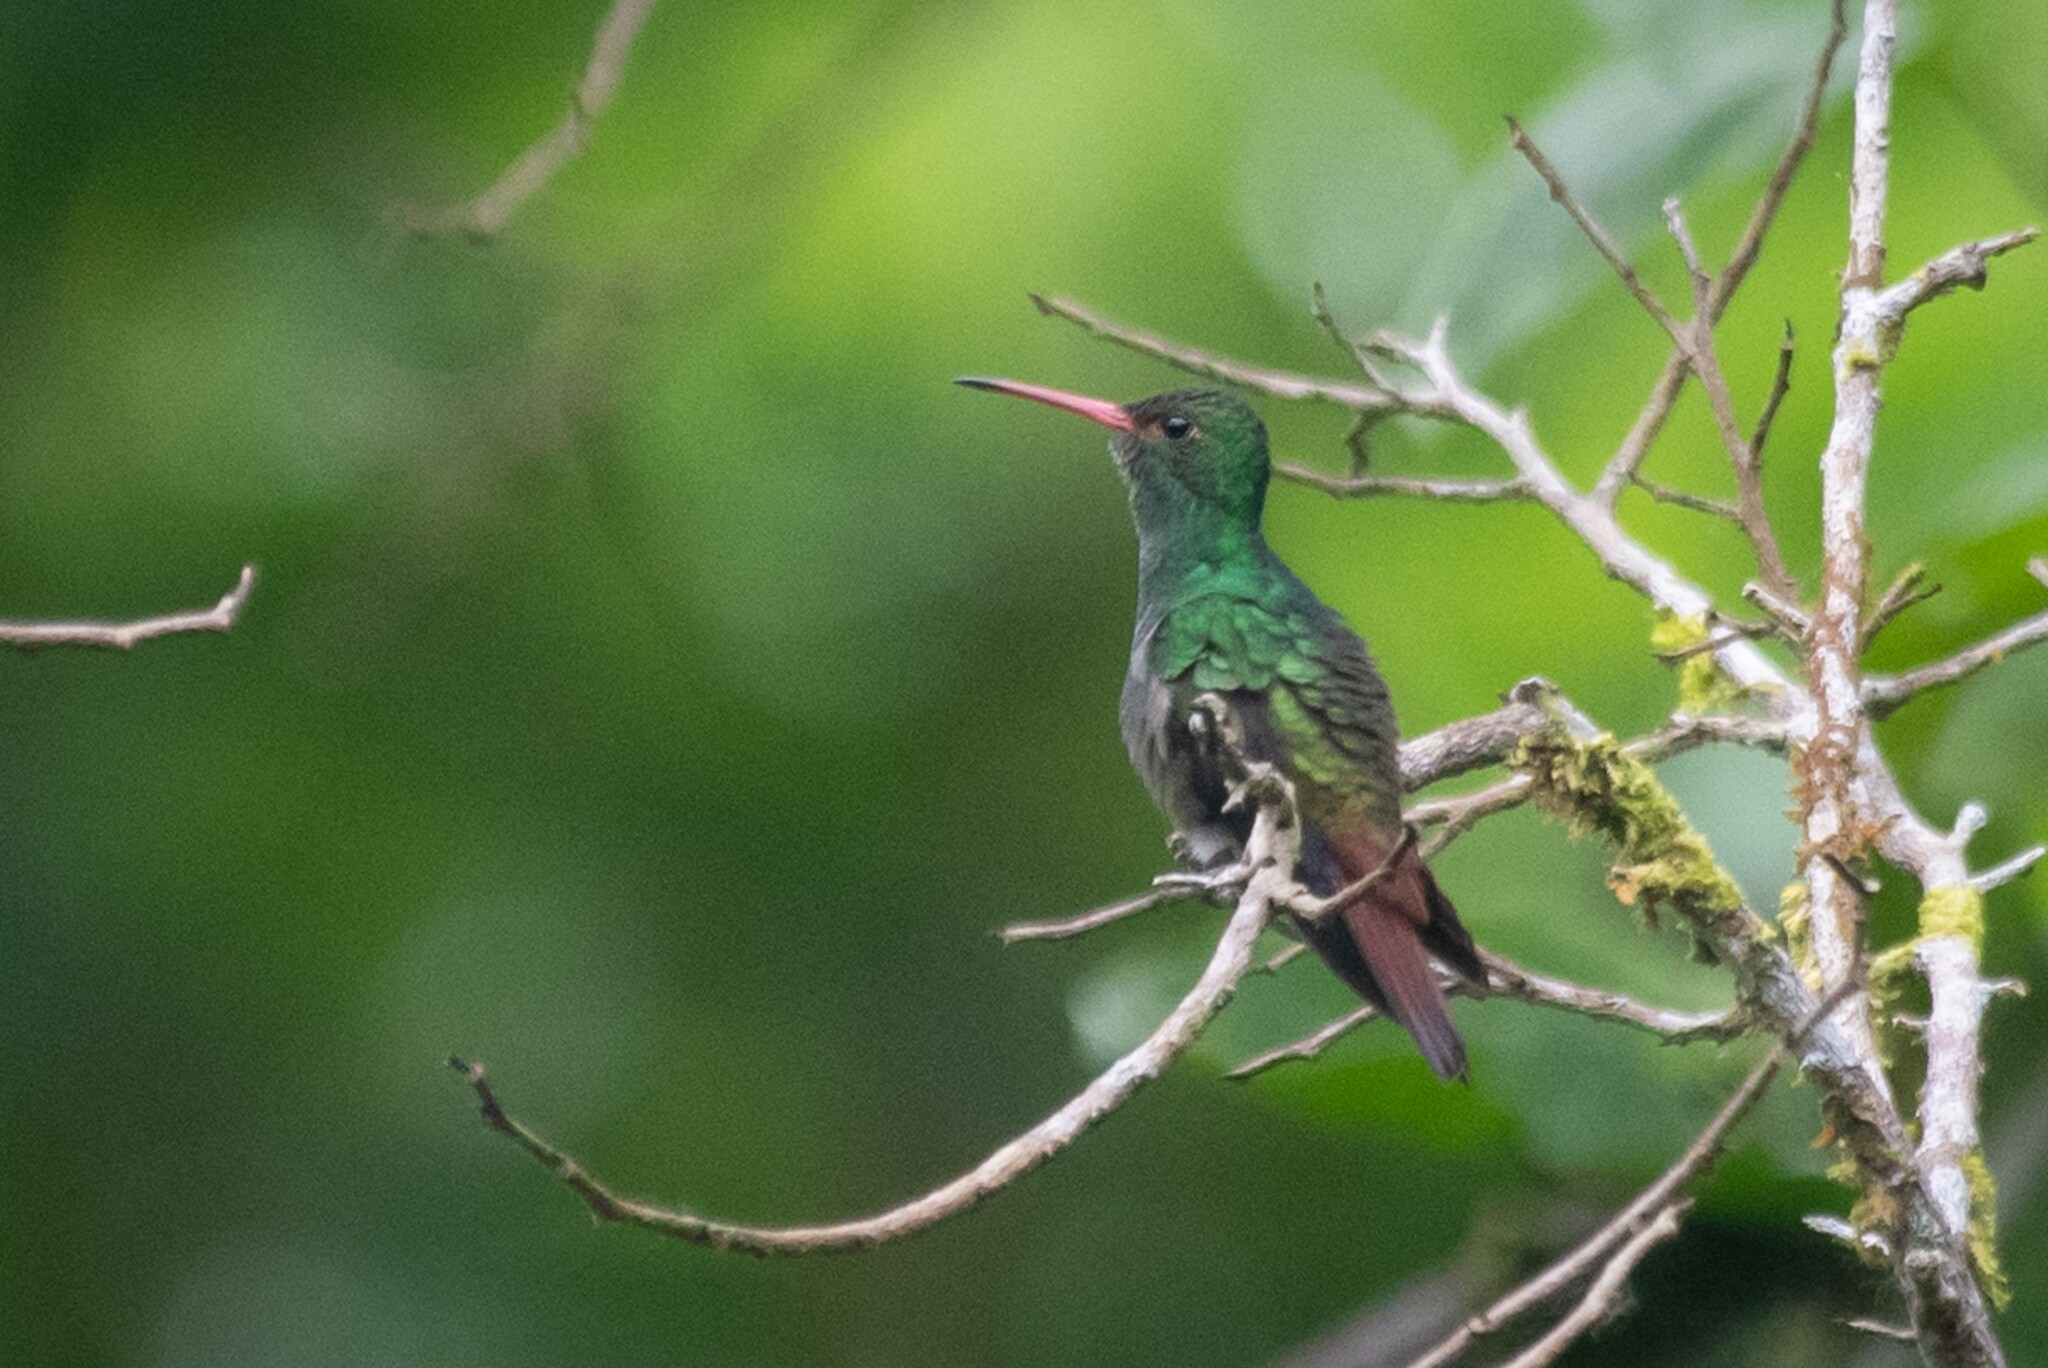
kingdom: Animalia
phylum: Chordata
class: Aves
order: Apodiformes
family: Trochilidae
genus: Amazilia
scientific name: Amazilia tzacatl
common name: Rufous-tailed hummingbird
